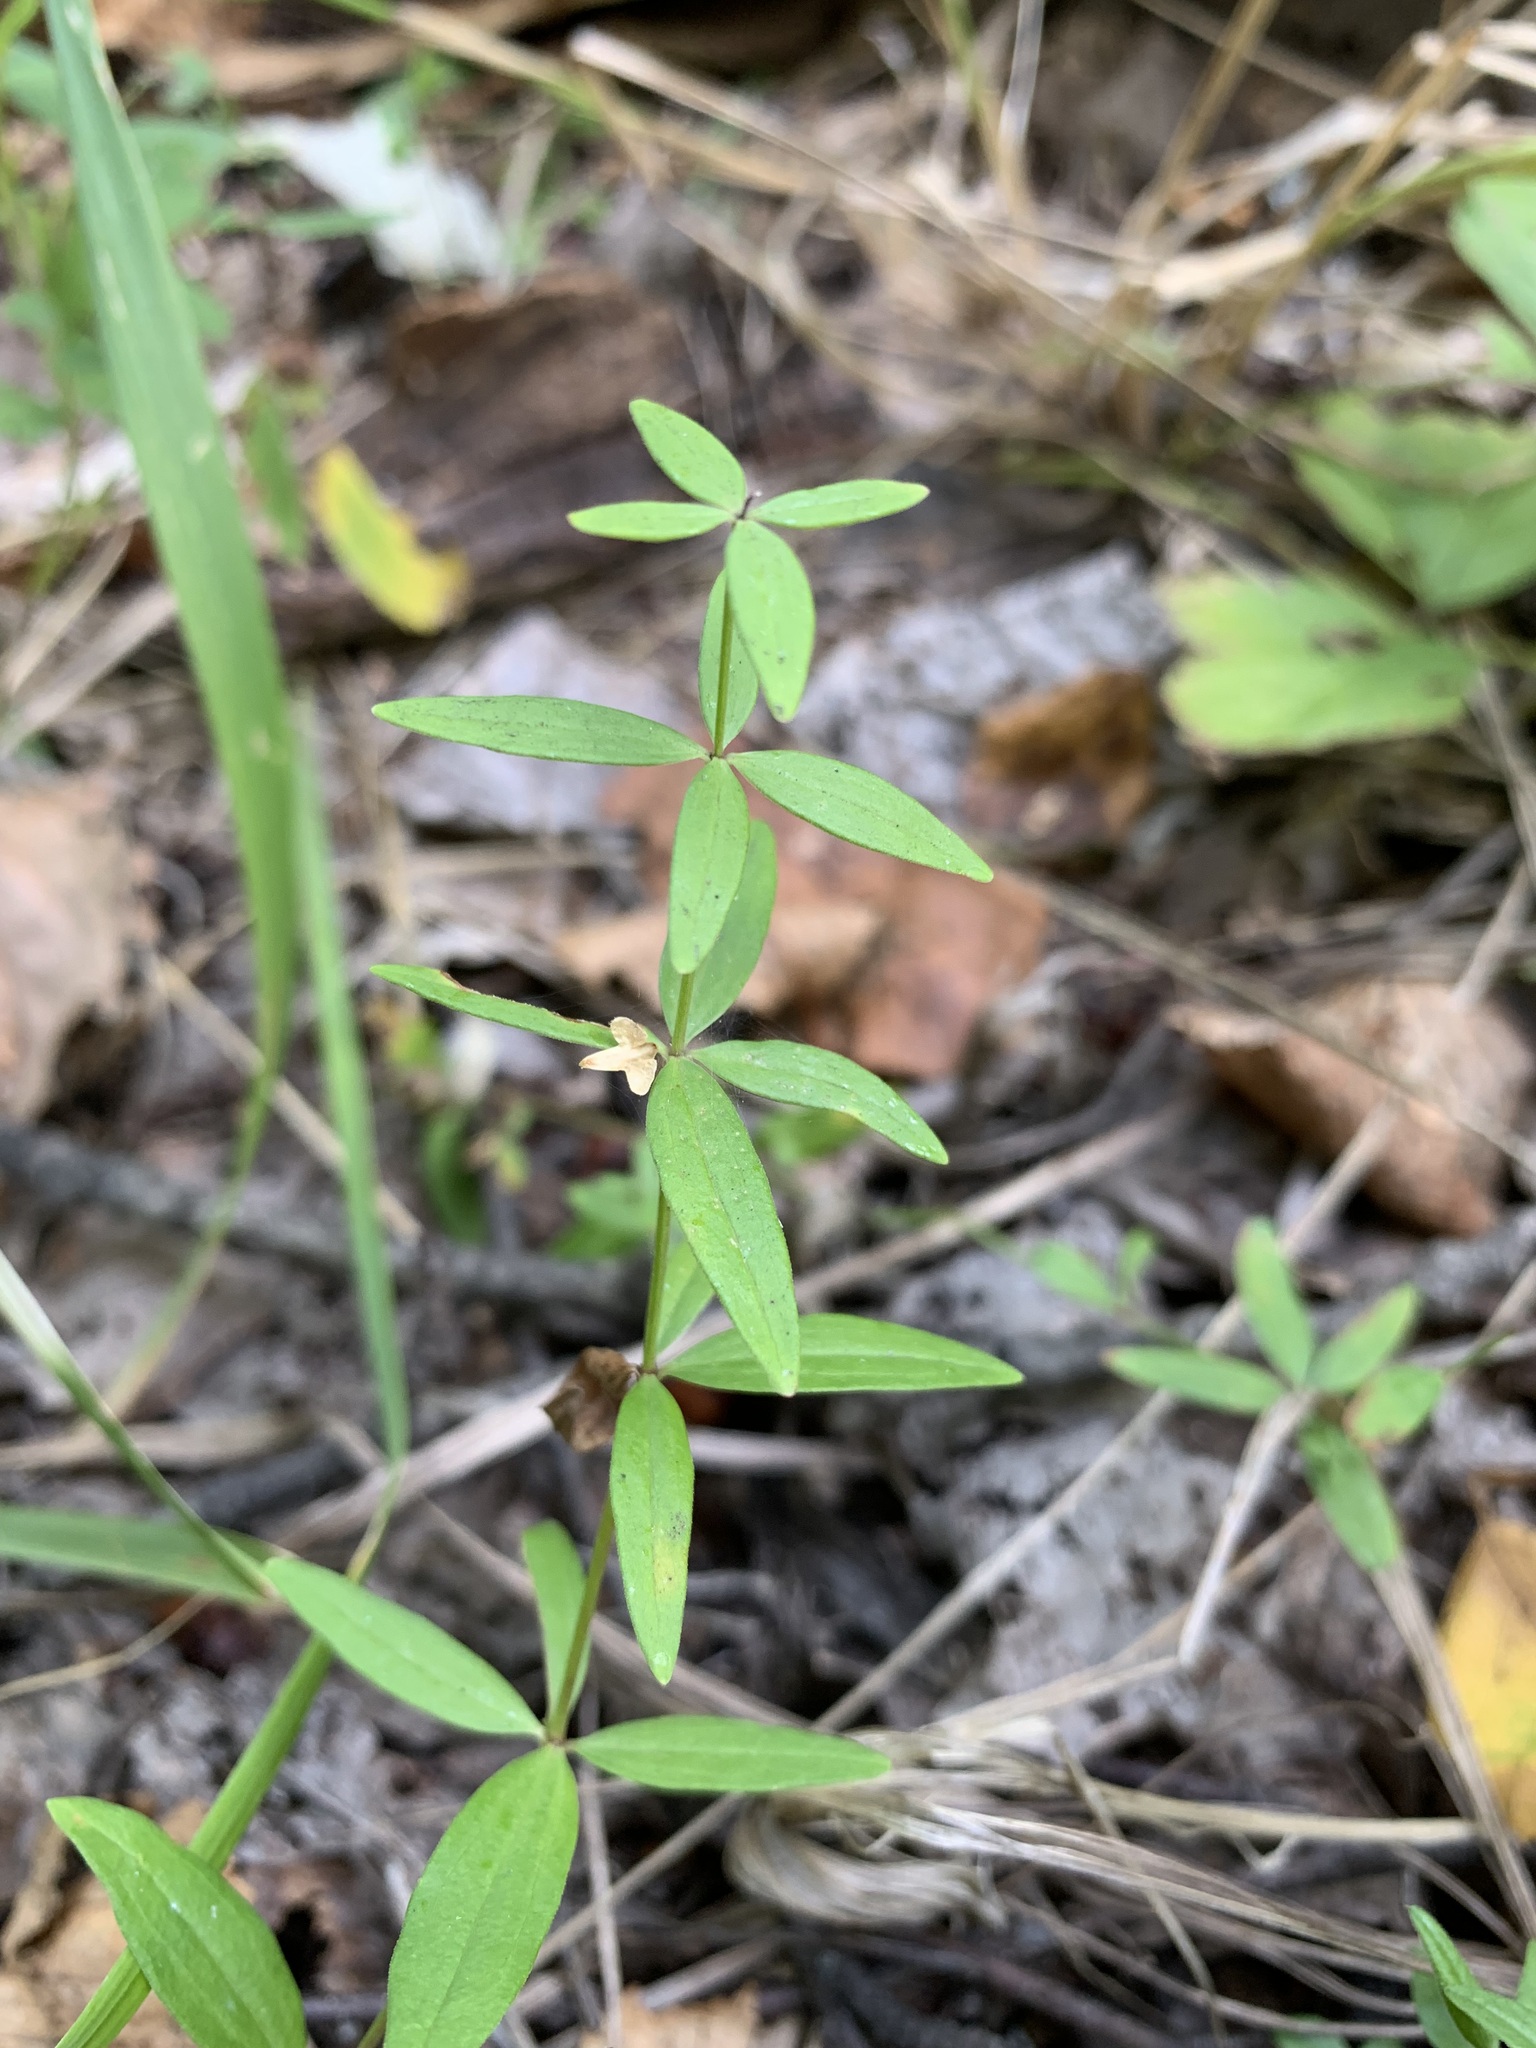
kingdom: Plantae
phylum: Tracheophyta
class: Magnoliopsida
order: Gentianales
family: Rubiaceae
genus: Galium
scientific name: Galium boreale
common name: Northern bedstraw
